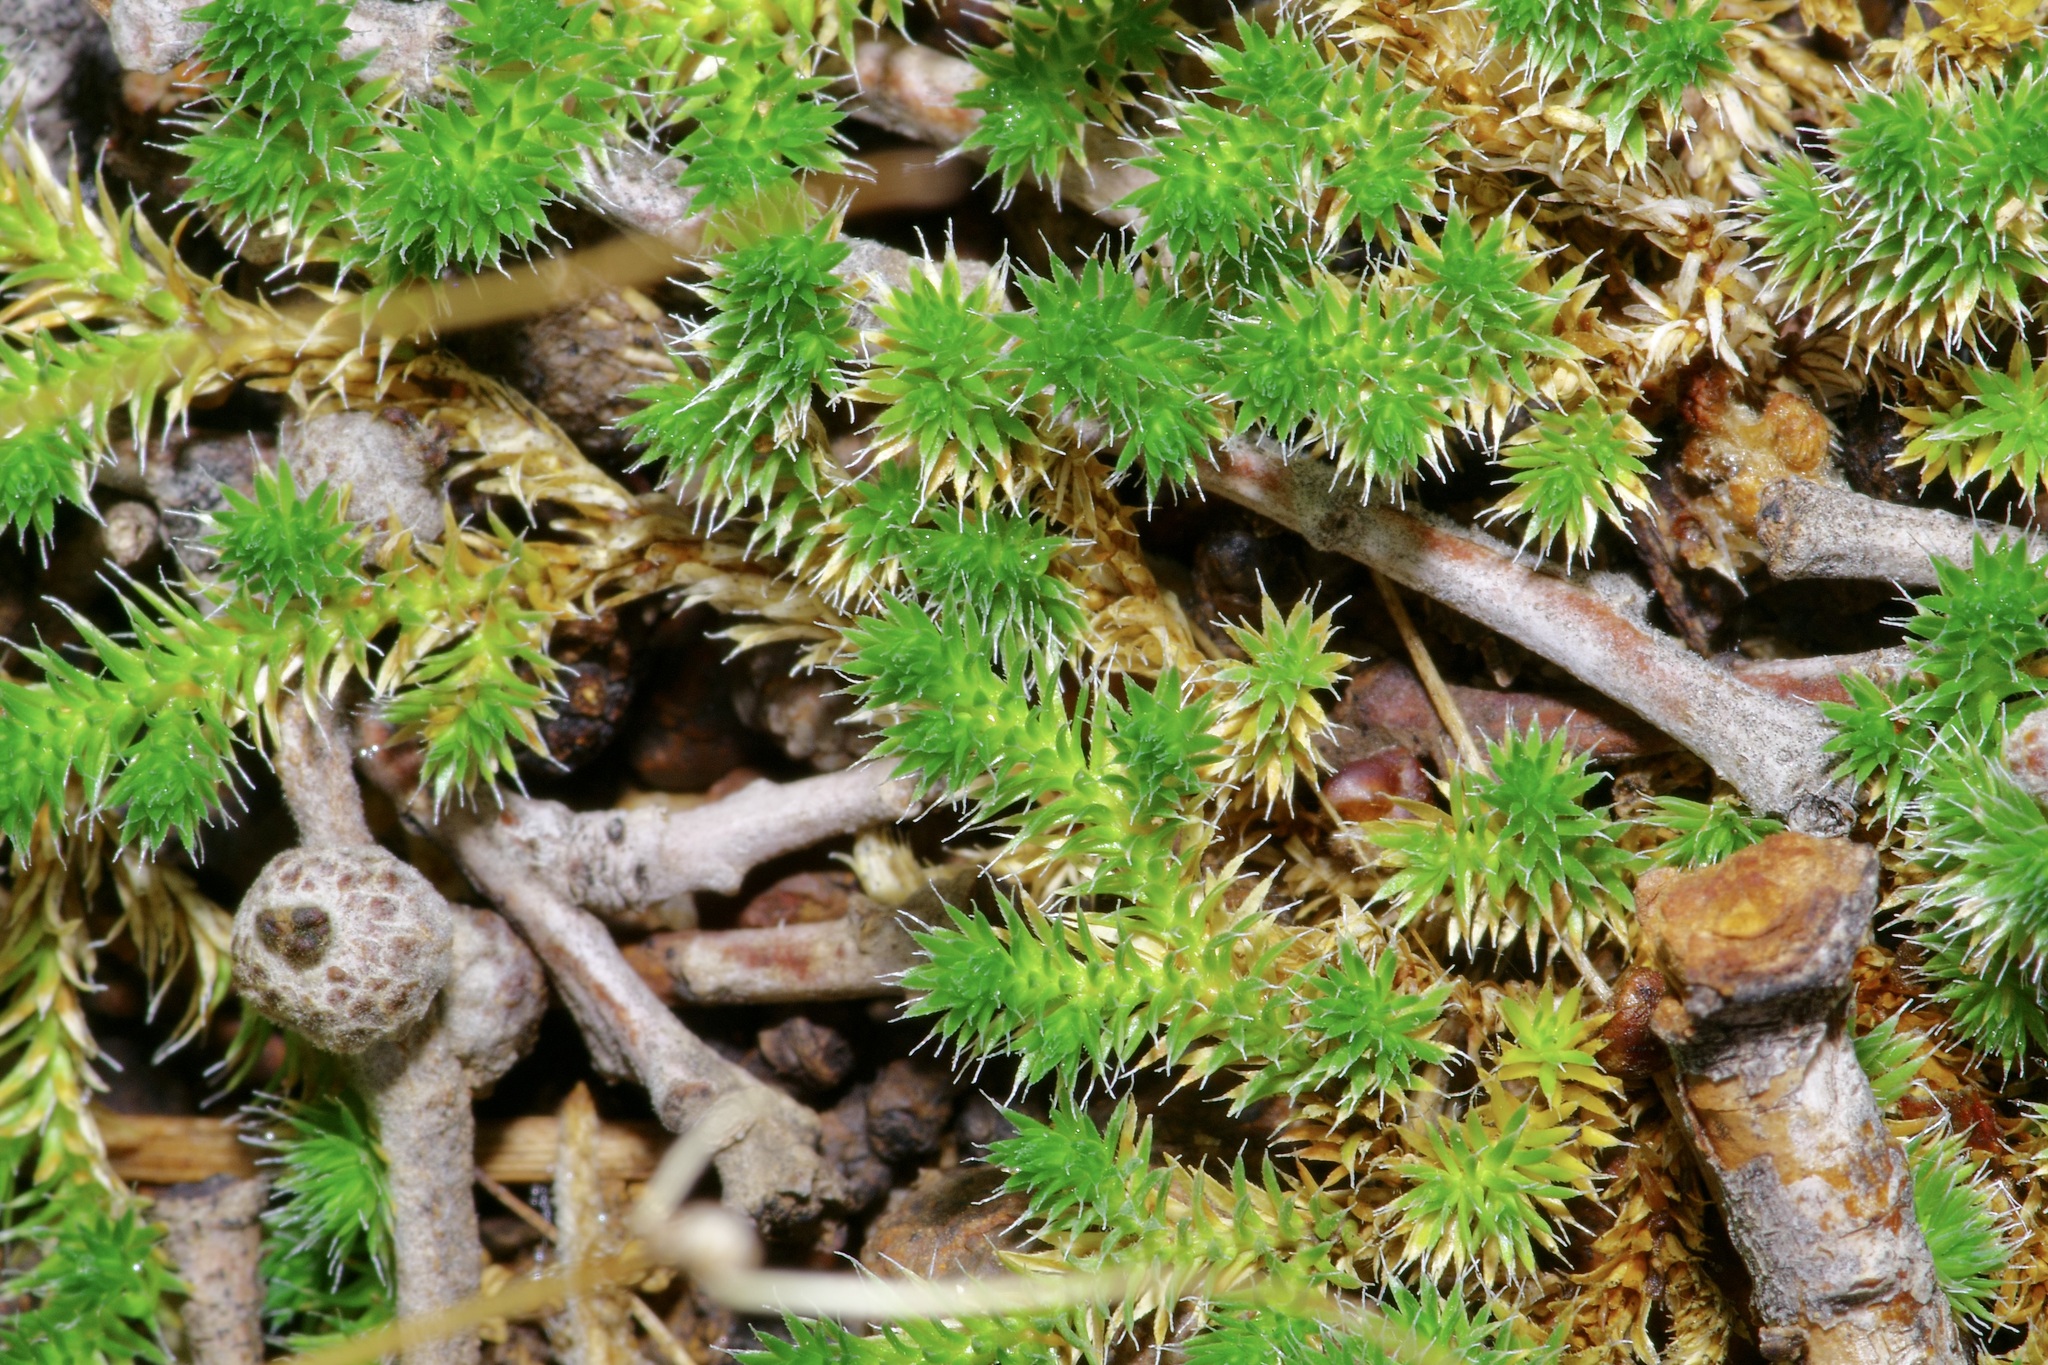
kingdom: Plantae
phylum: Tracheophyta
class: Lycopodiopsida
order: Selaginellales
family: Selaginellaceae
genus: Selaginella
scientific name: Selaginella peruviana
